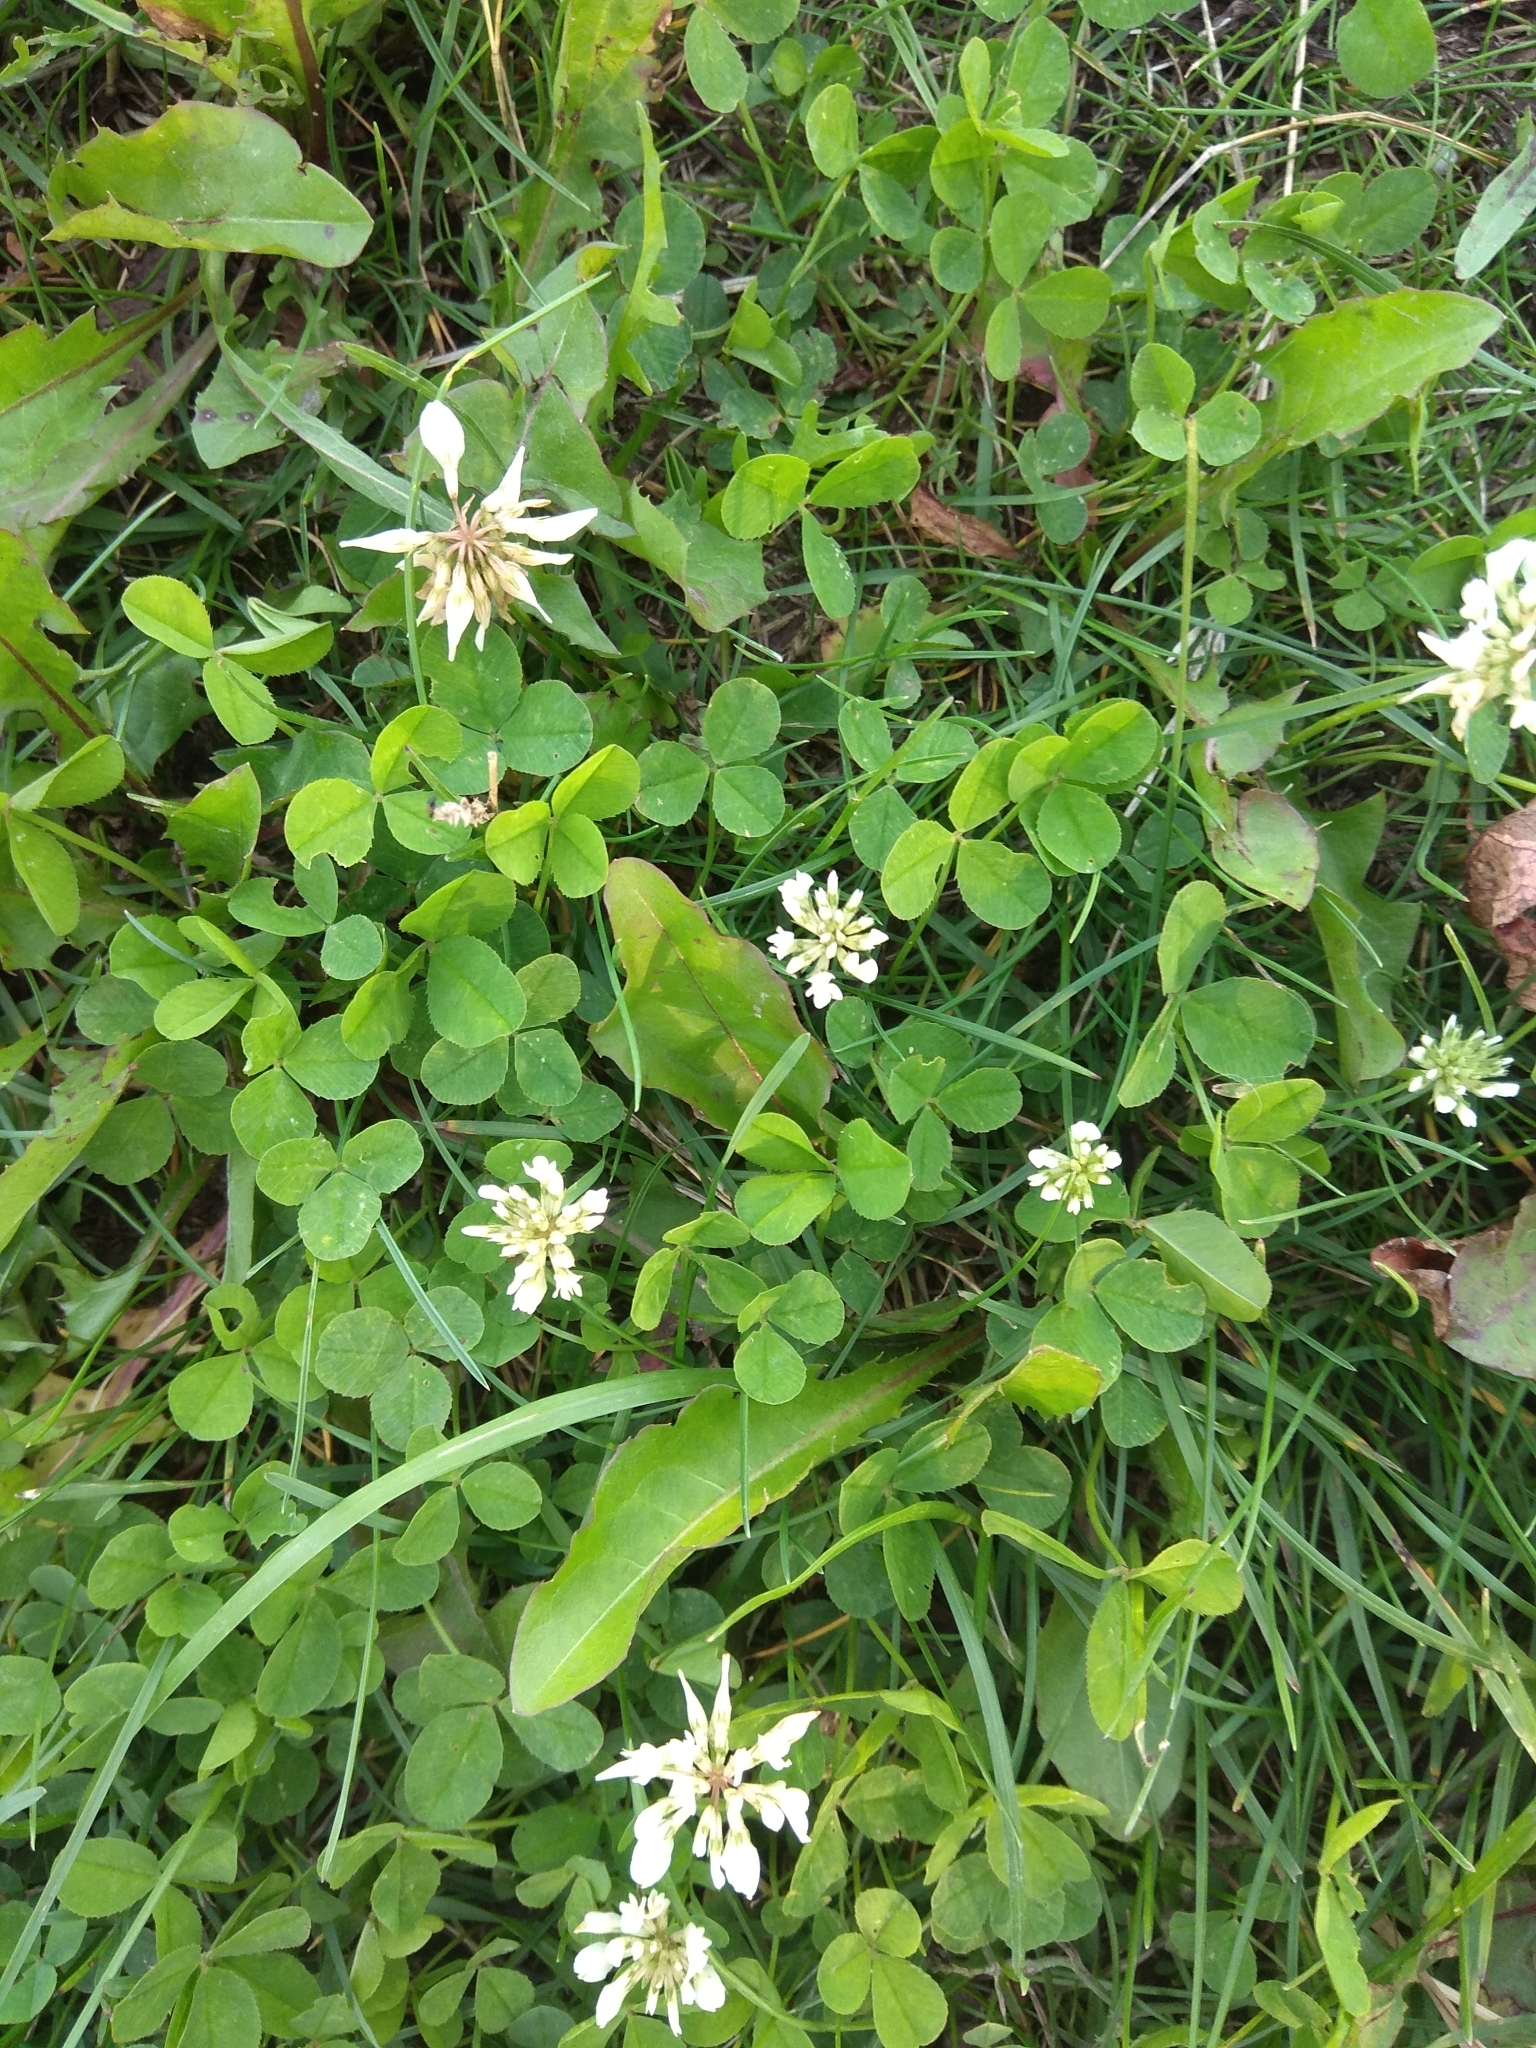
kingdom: Plantae
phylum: Tracheophyta
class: Magnoliopsida
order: Fabales
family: Fabaceae
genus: Trifolium
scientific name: Trifolium repens
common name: White clover
